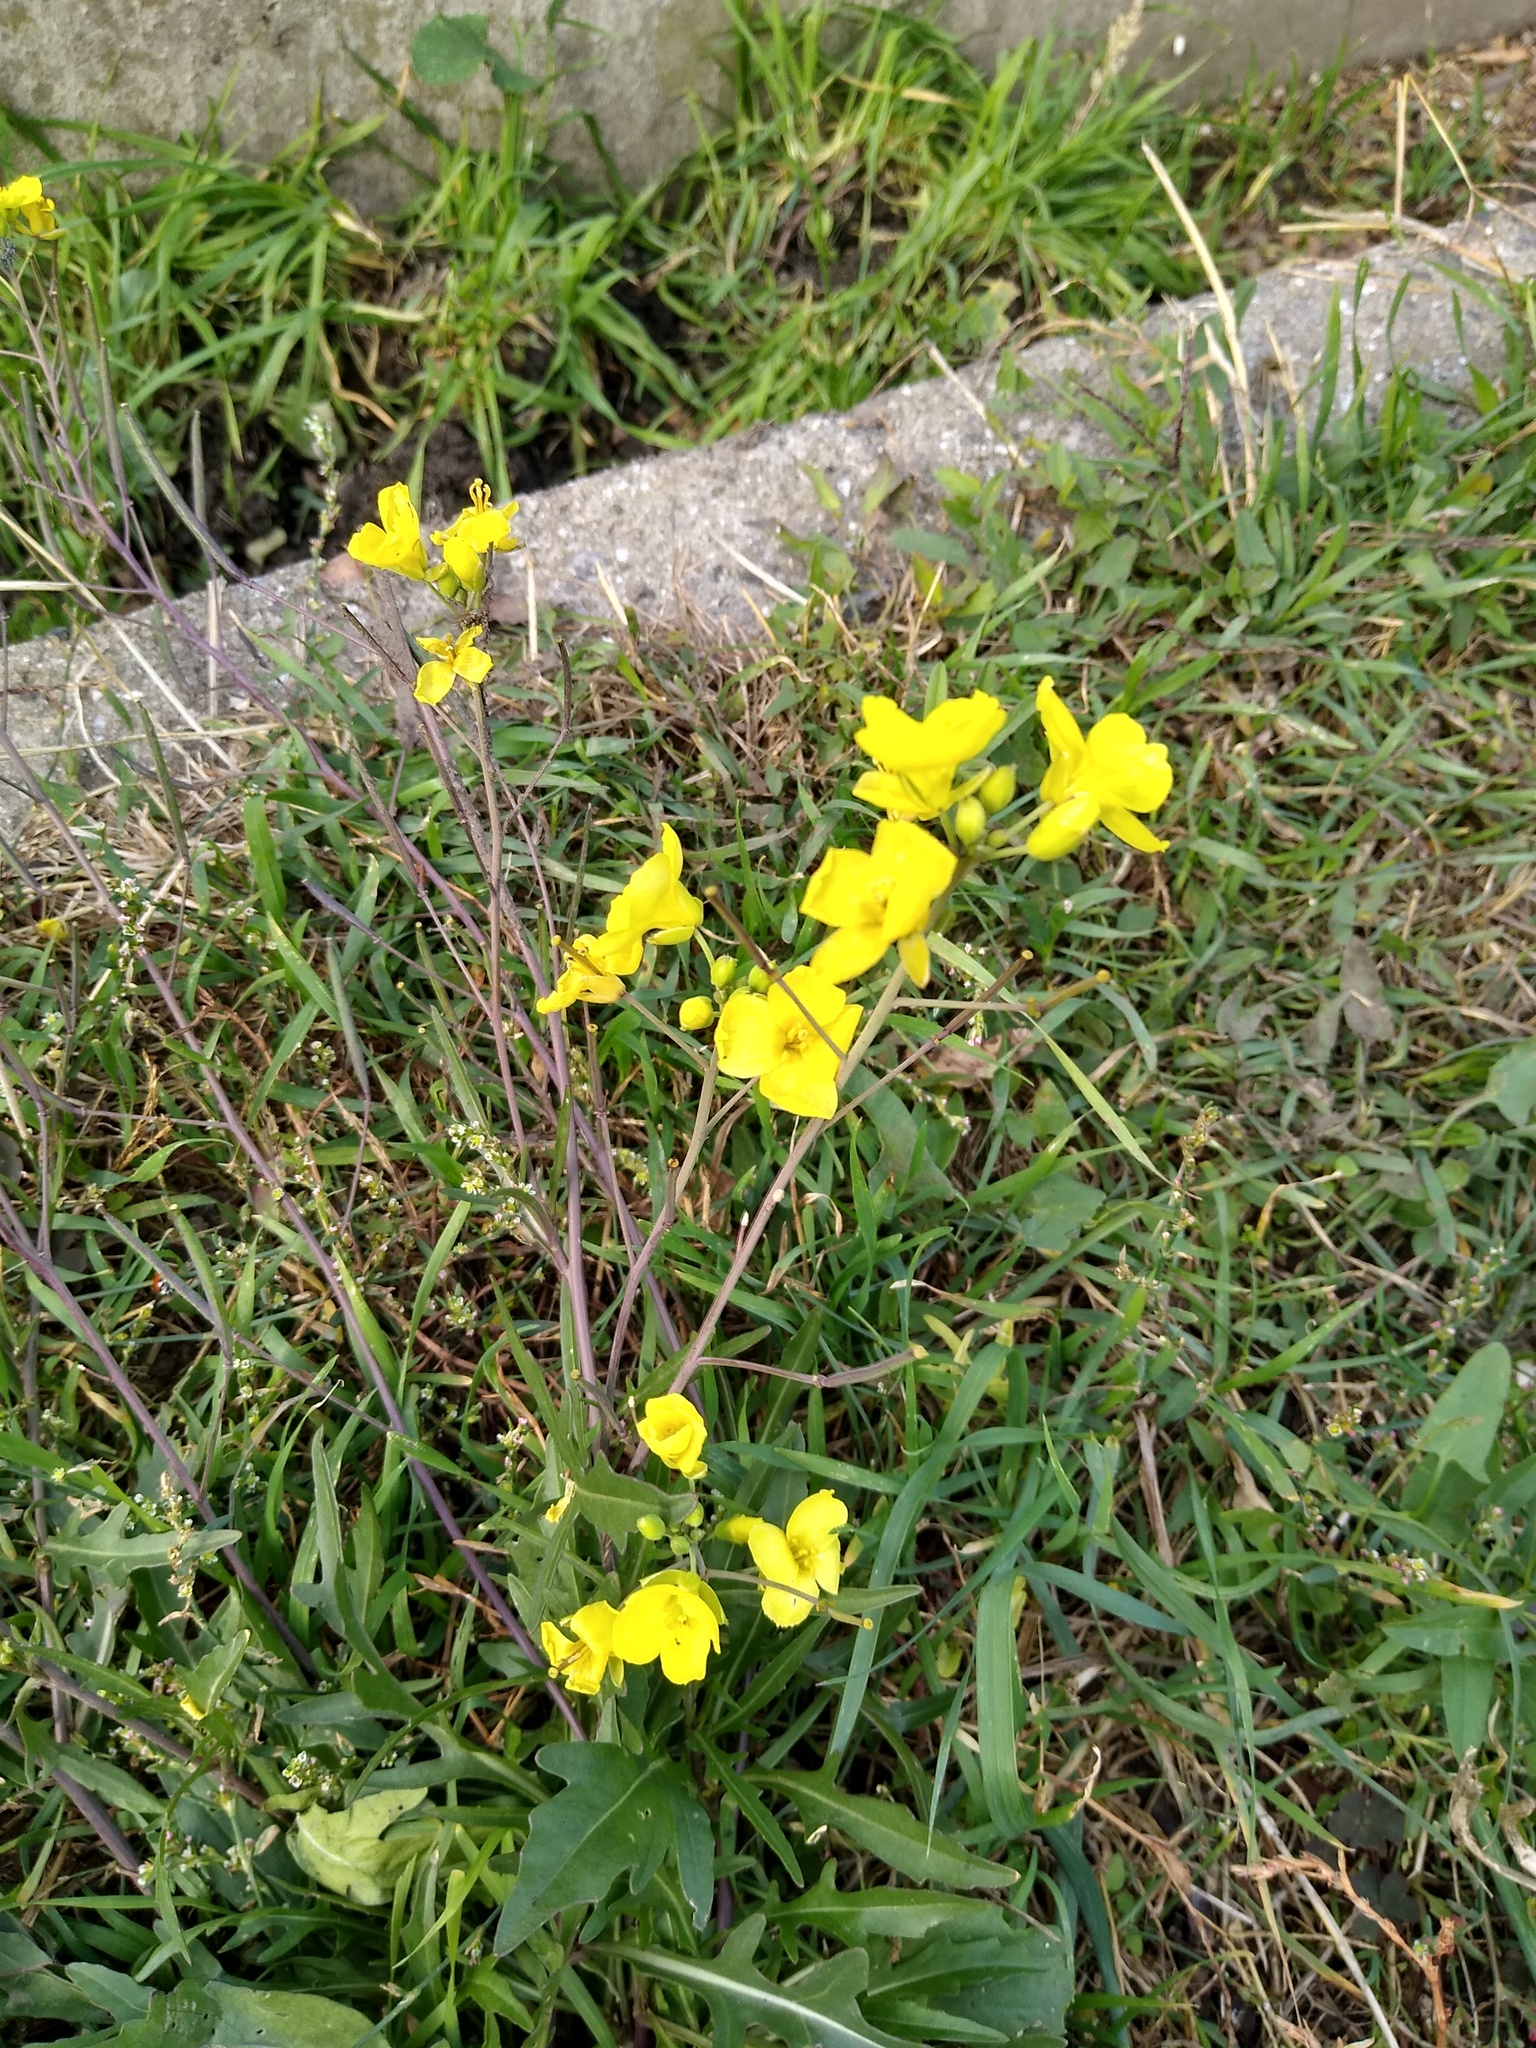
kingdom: Plantae
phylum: Tracheophyta
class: Magnoliopsida
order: Brassicales
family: Brassicaceae
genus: Diplotaxis
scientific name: Diplotaxis tenuifolia
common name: Perennial wall-rocket
